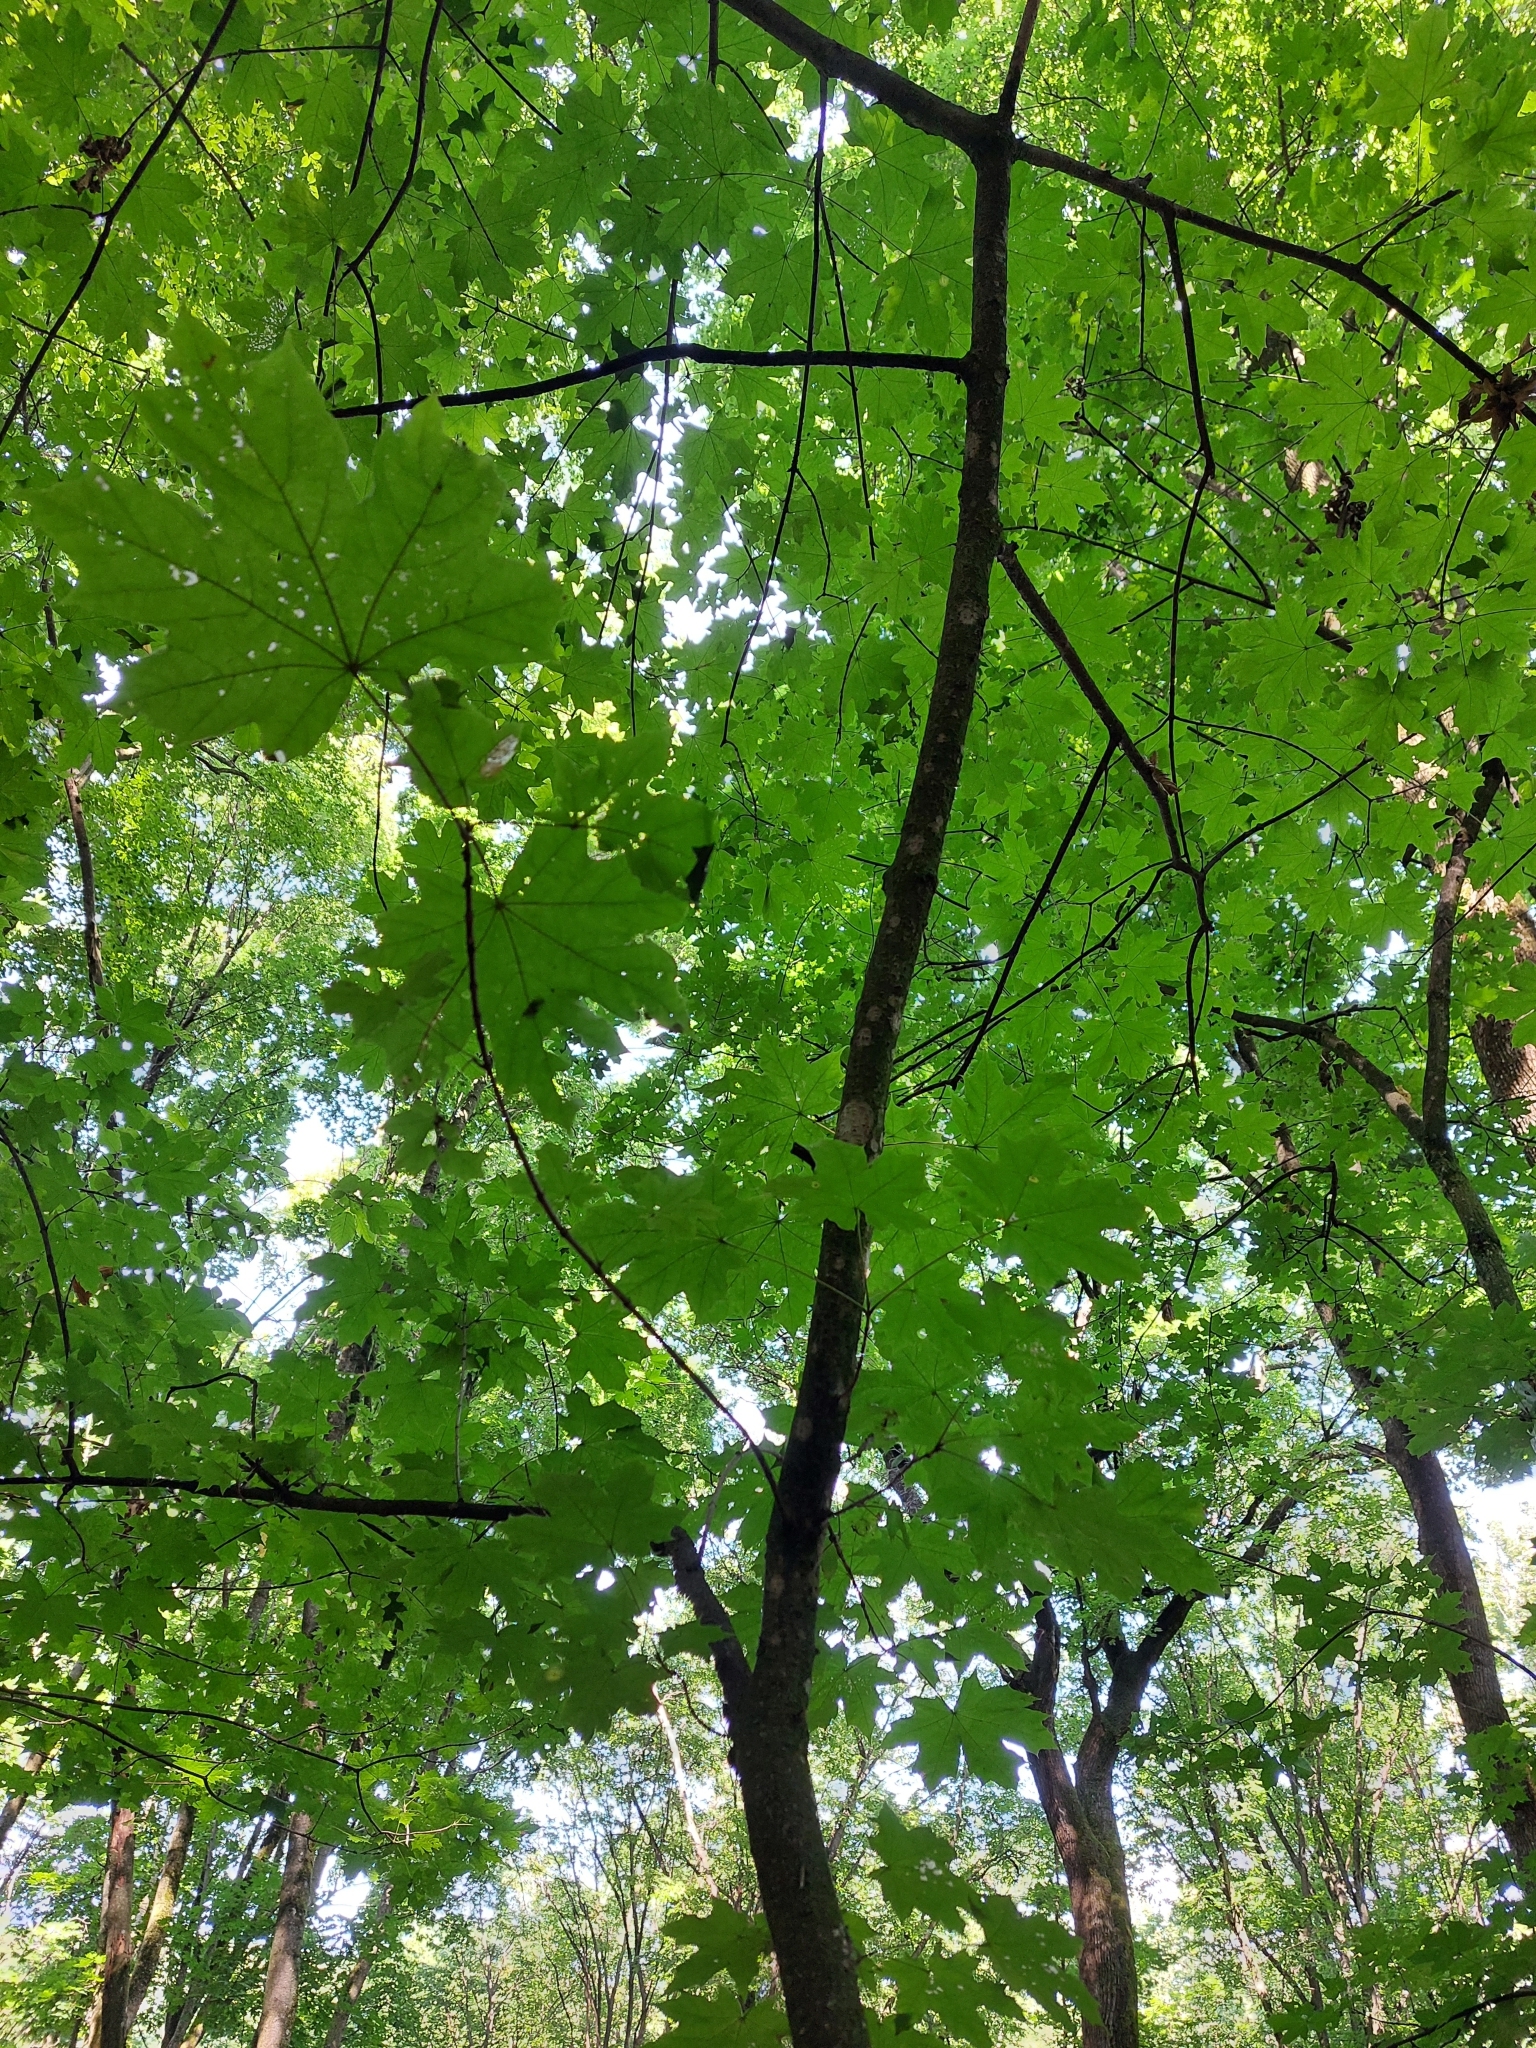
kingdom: Plantae
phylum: Tracheophyta
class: Magnoliopsida
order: Sapindales
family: Sapindaceae
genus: Acer
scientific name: Acer platanoides
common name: Norway maple
